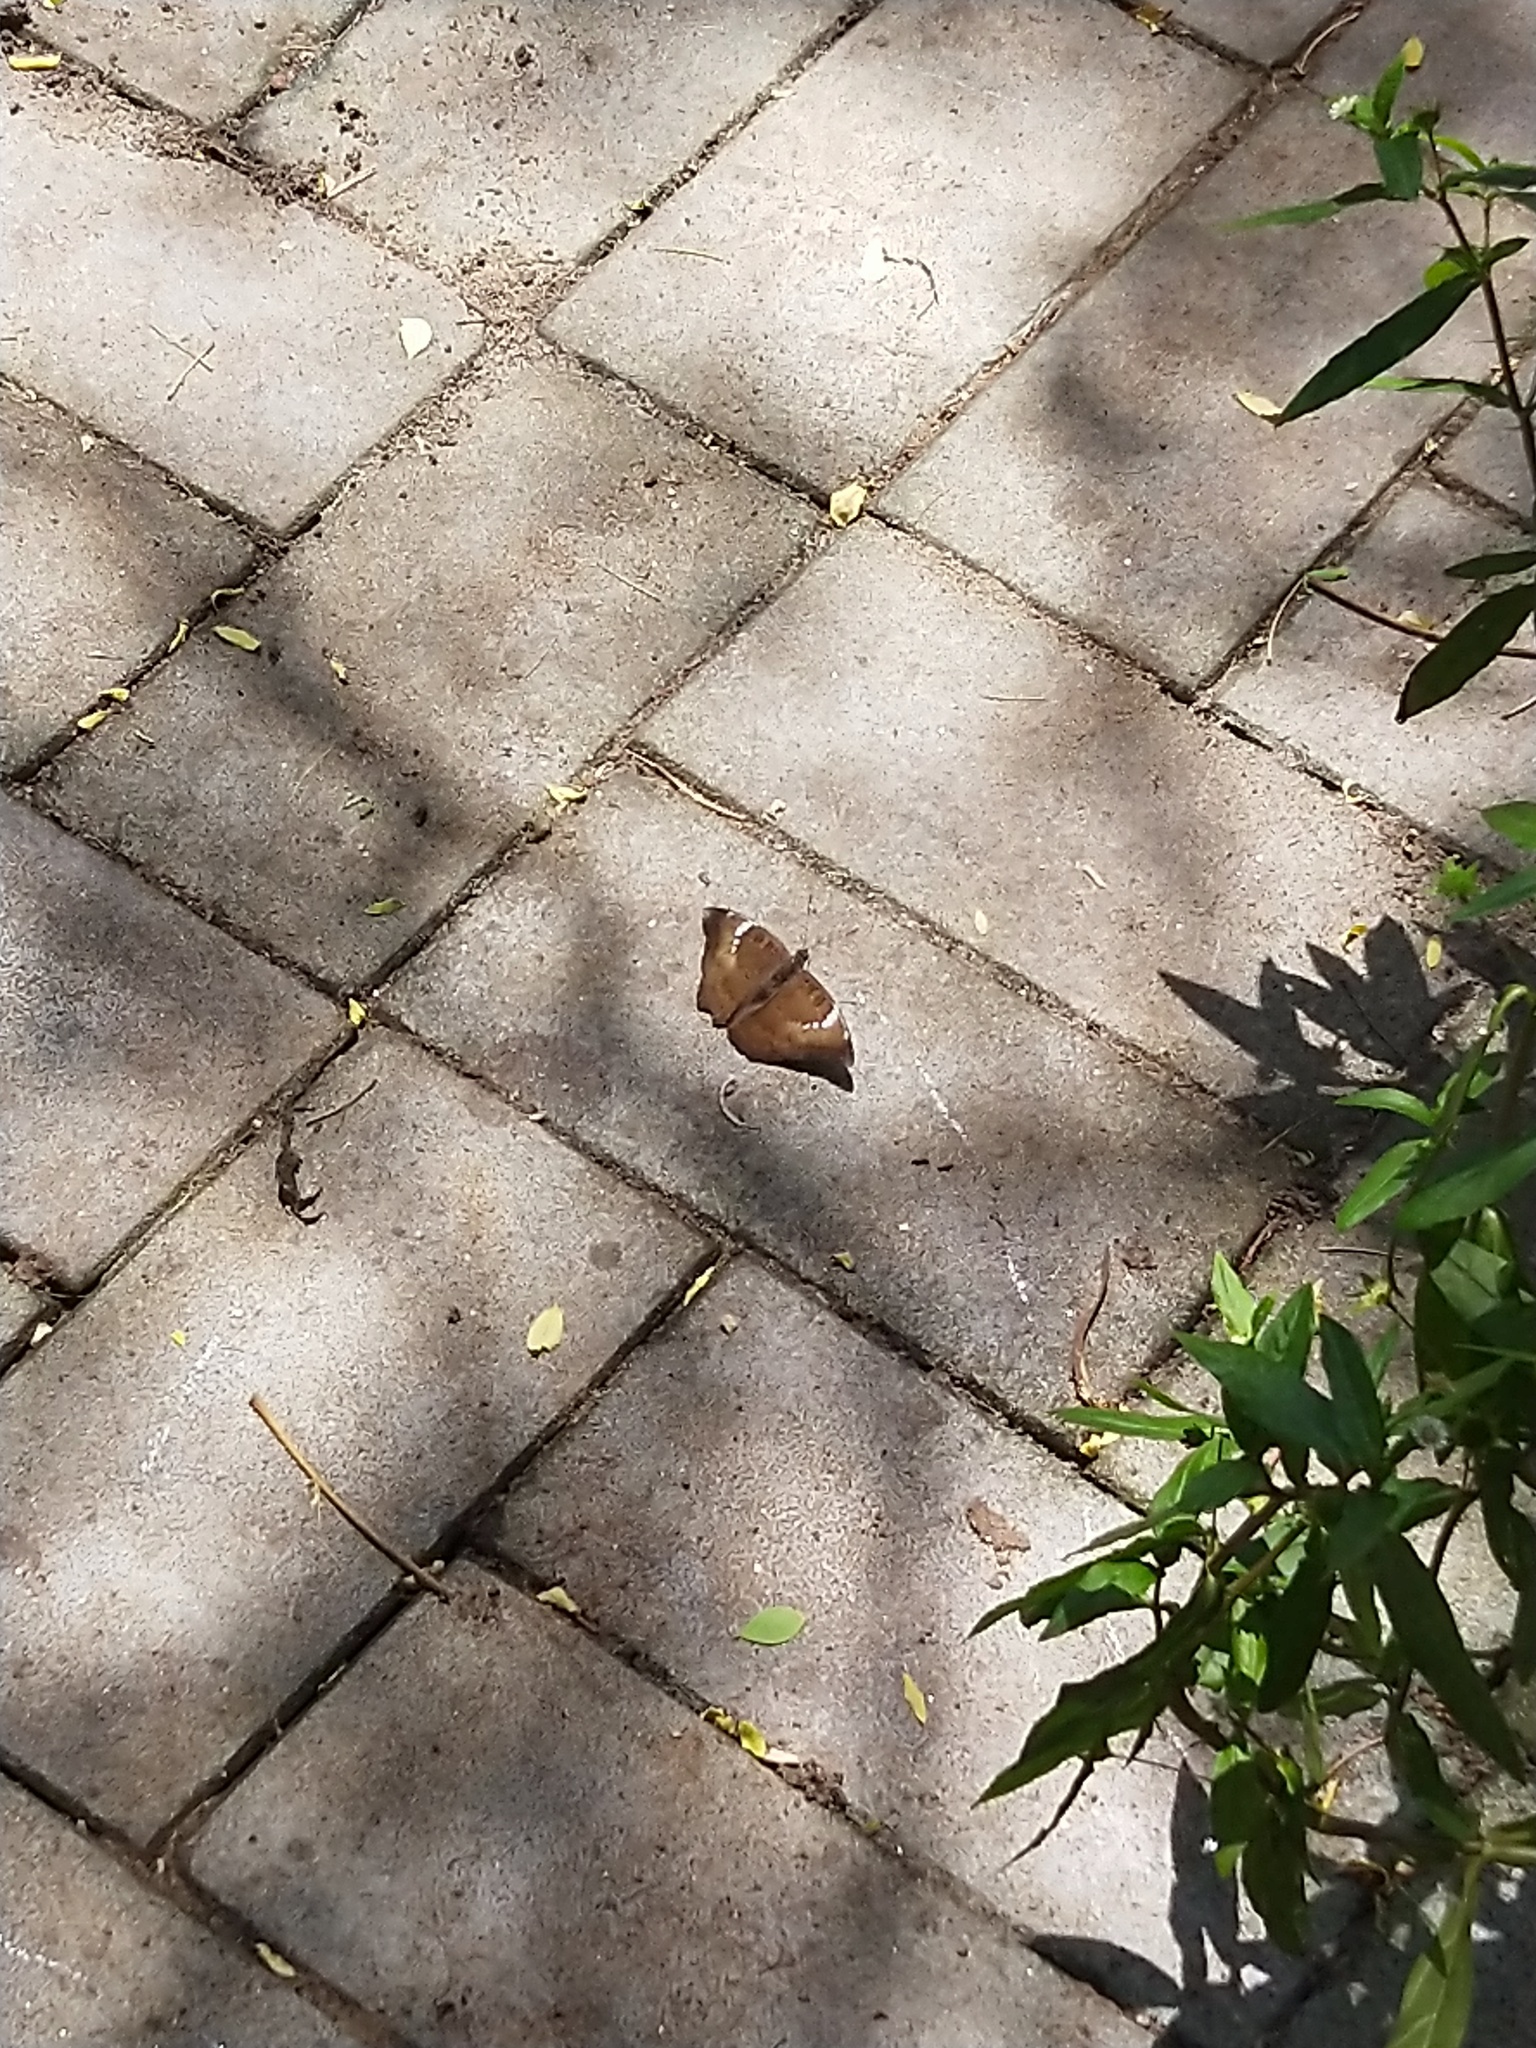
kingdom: Animalia
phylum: Arthropoda
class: Insecta
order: Lepidoptera
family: Nymphalidae
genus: Euthalia
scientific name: Euthalia aconthea
